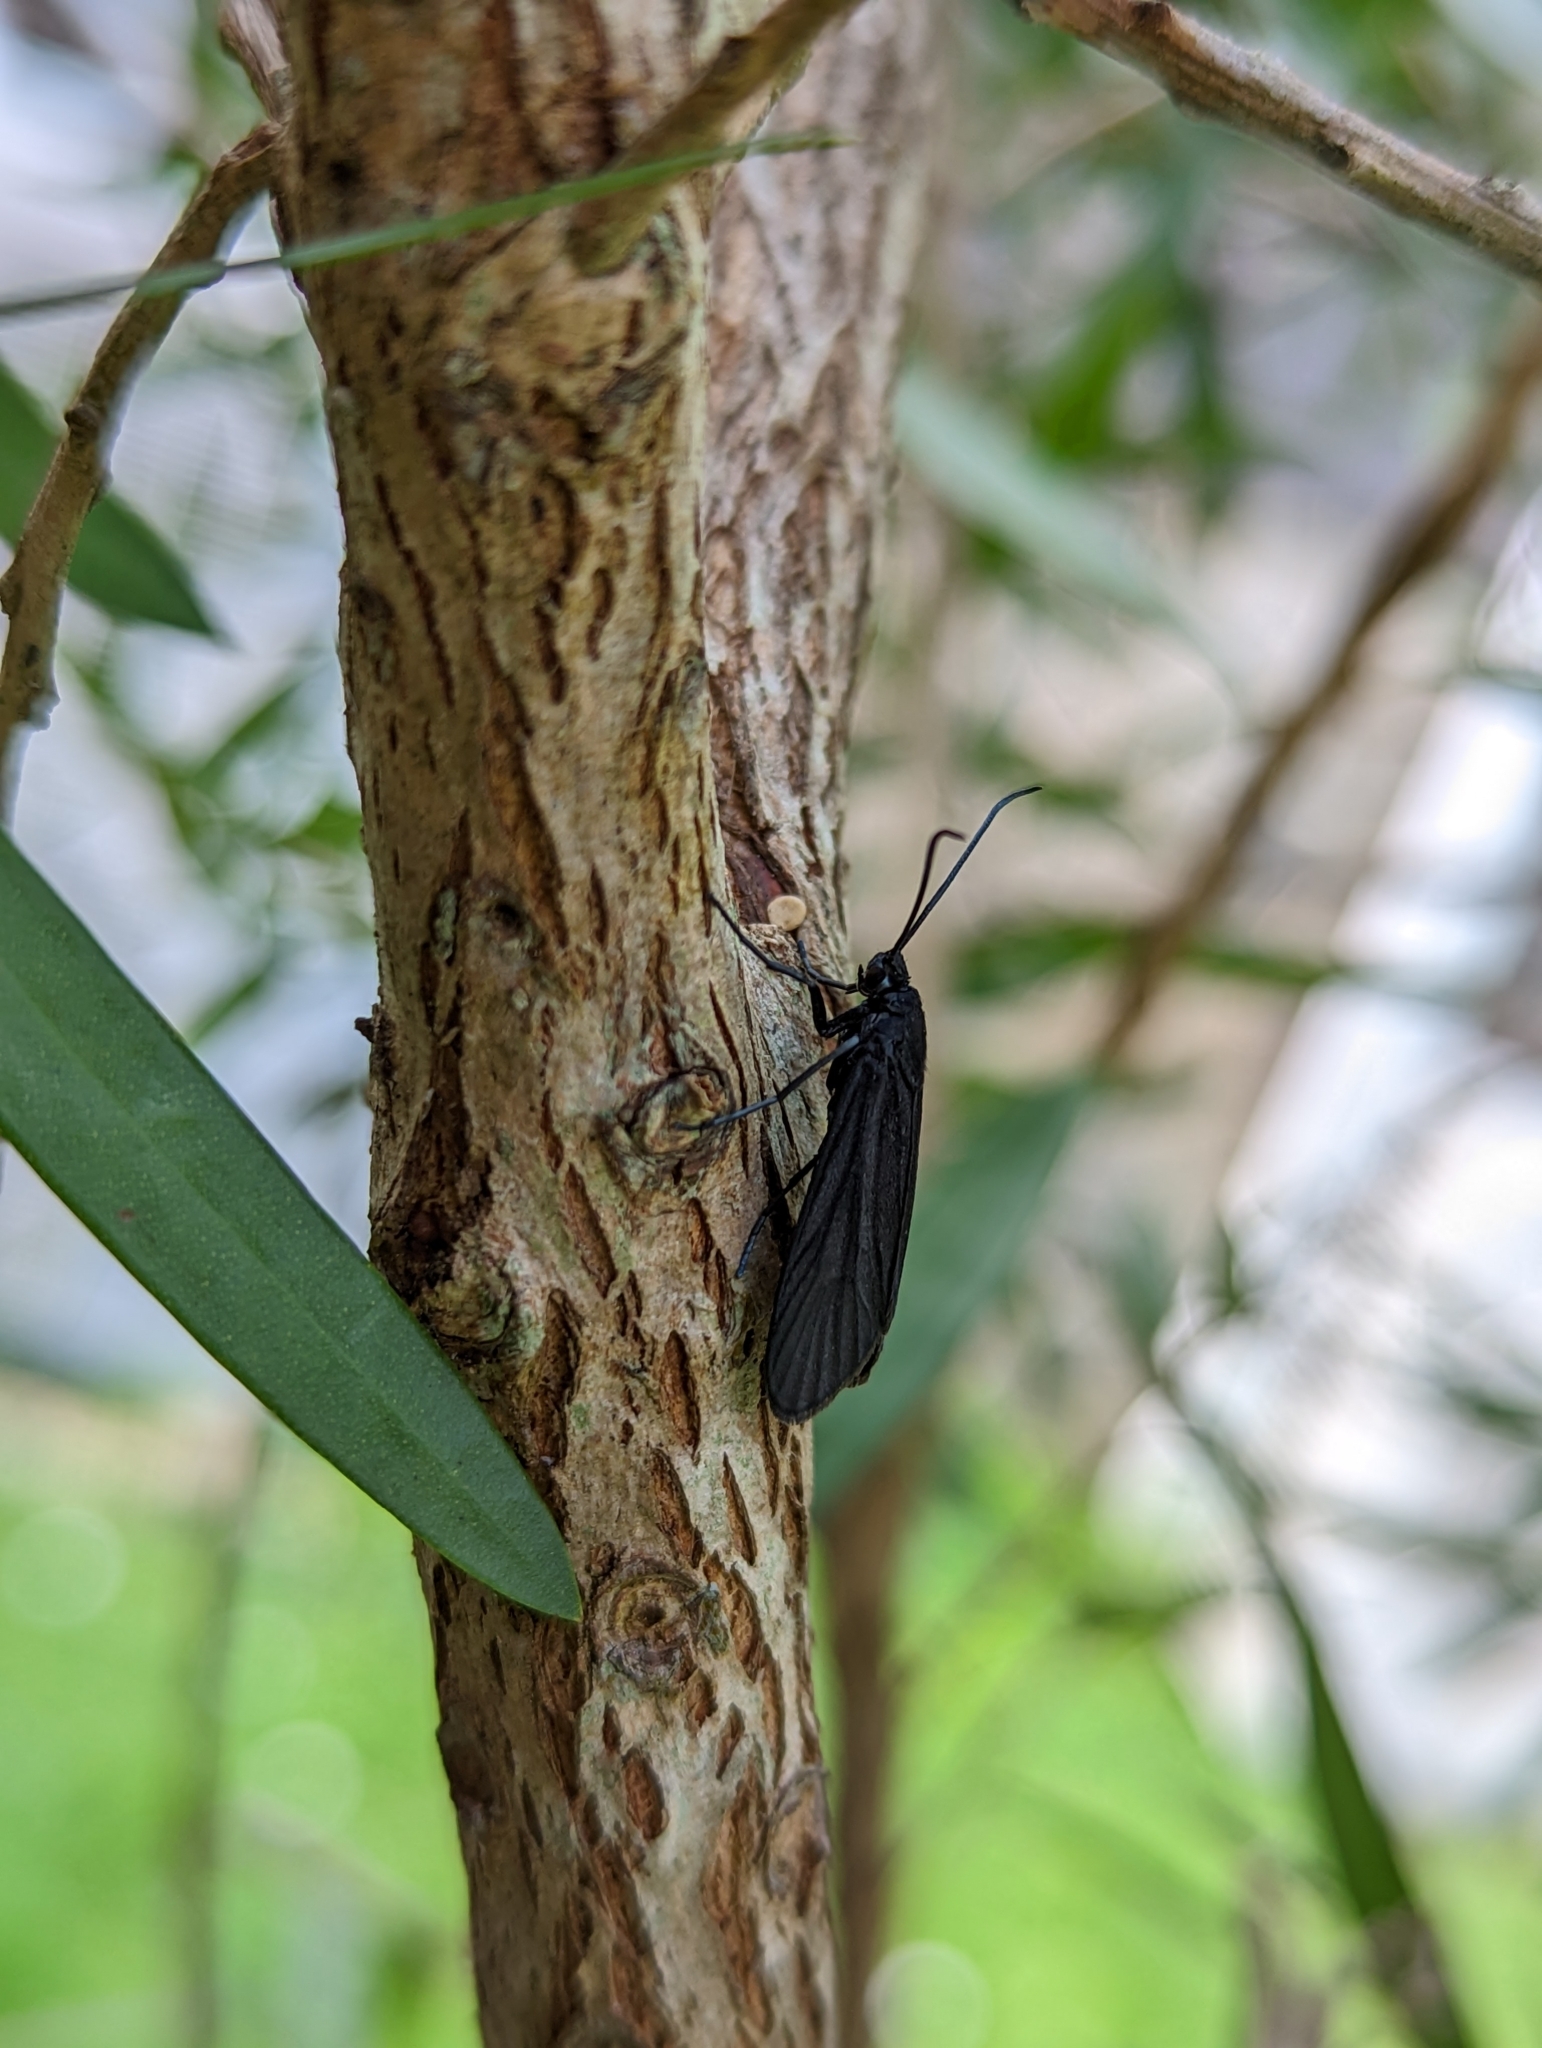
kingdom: Animalia
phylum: Arthropoda
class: Insecta
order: Lepidoptera
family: Zygaenidae
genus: Artona
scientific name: Artona martini
